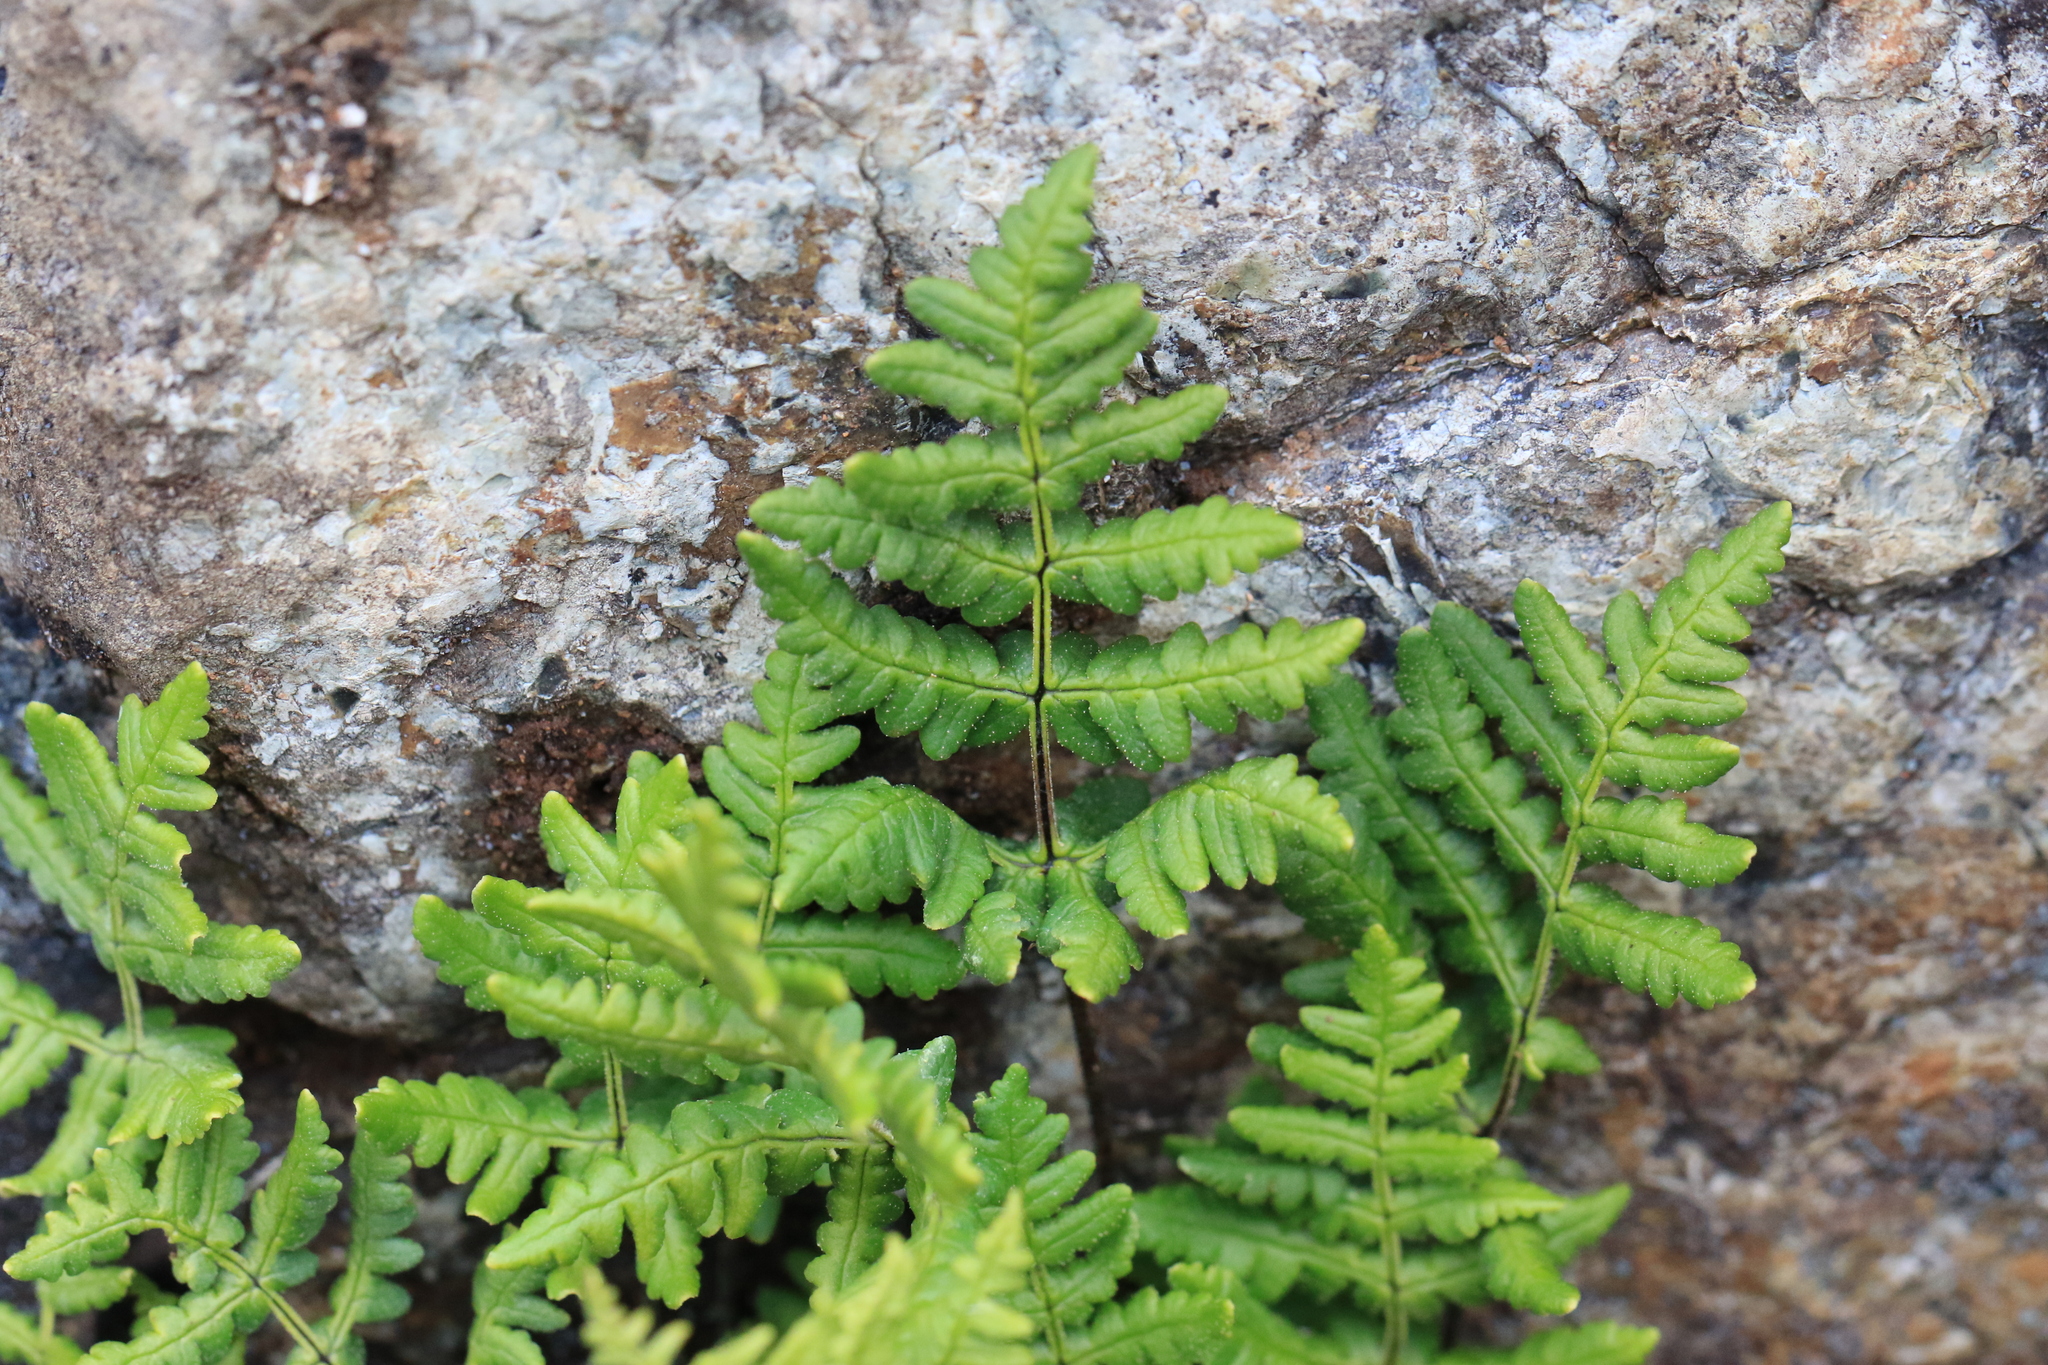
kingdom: Plantae
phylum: Tracheophyta
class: Polypodiopsida
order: Polypodiales
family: Pteridaceae
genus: Pentagramma
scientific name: Pentagramma triangularis
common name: Gold fern
